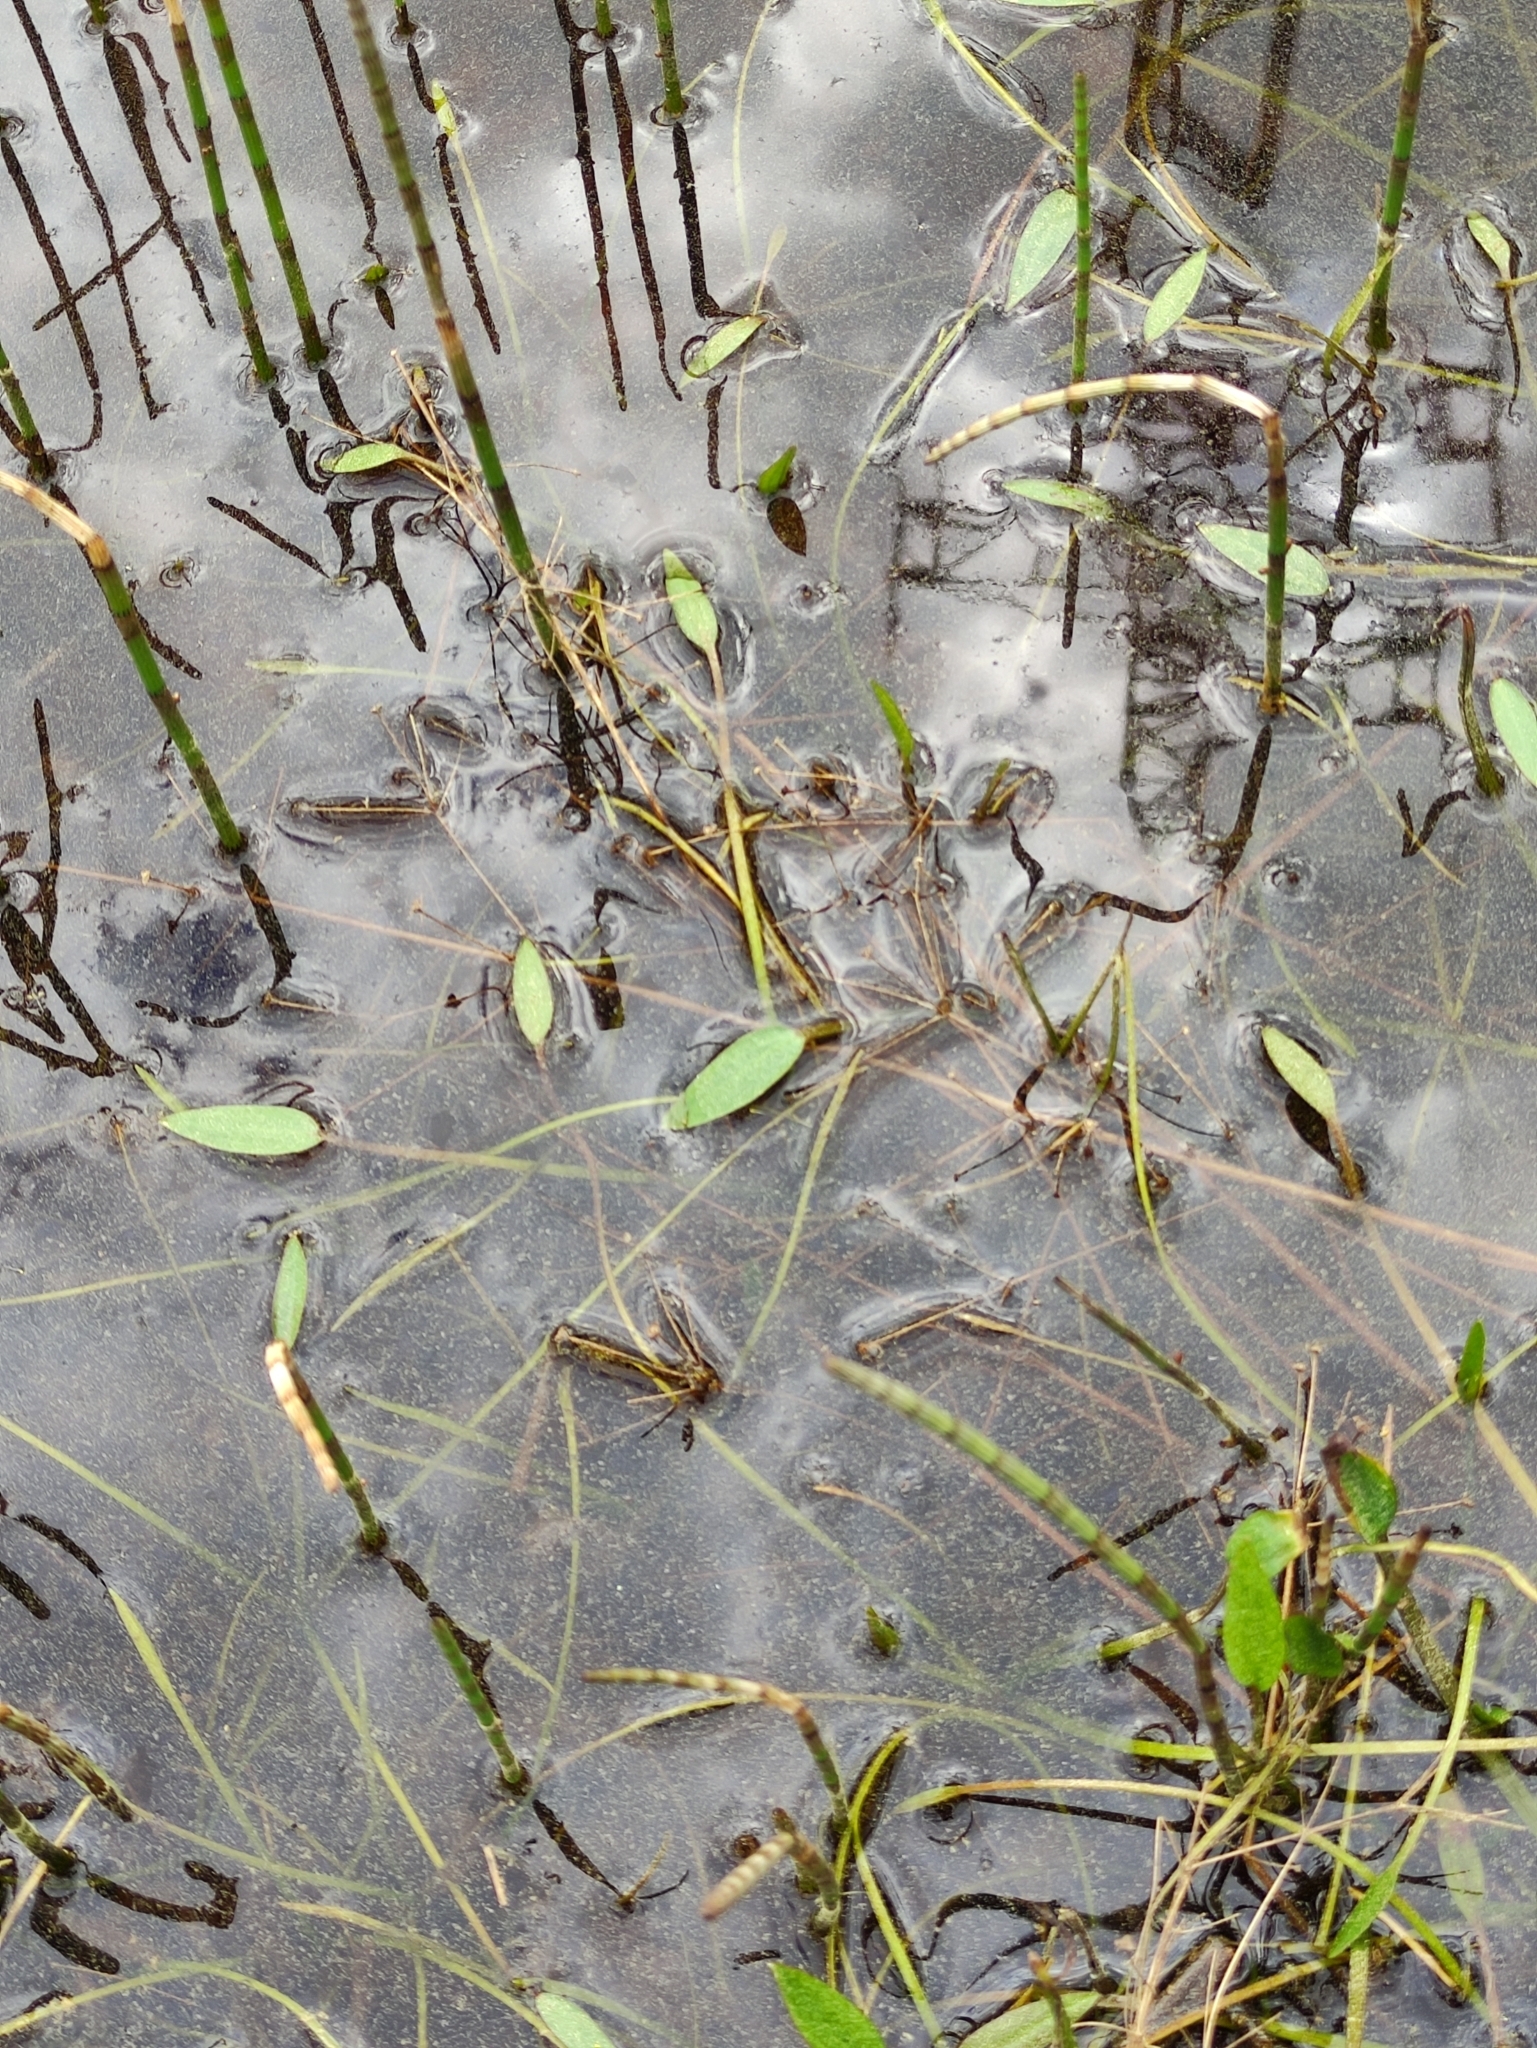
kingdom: Plantae
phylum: Tracheophyta
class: Liliopsida
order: Alismatales
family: Alismataceae
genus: Alisma
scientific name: Alisma plantago-aquatica
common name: Water-plantain
